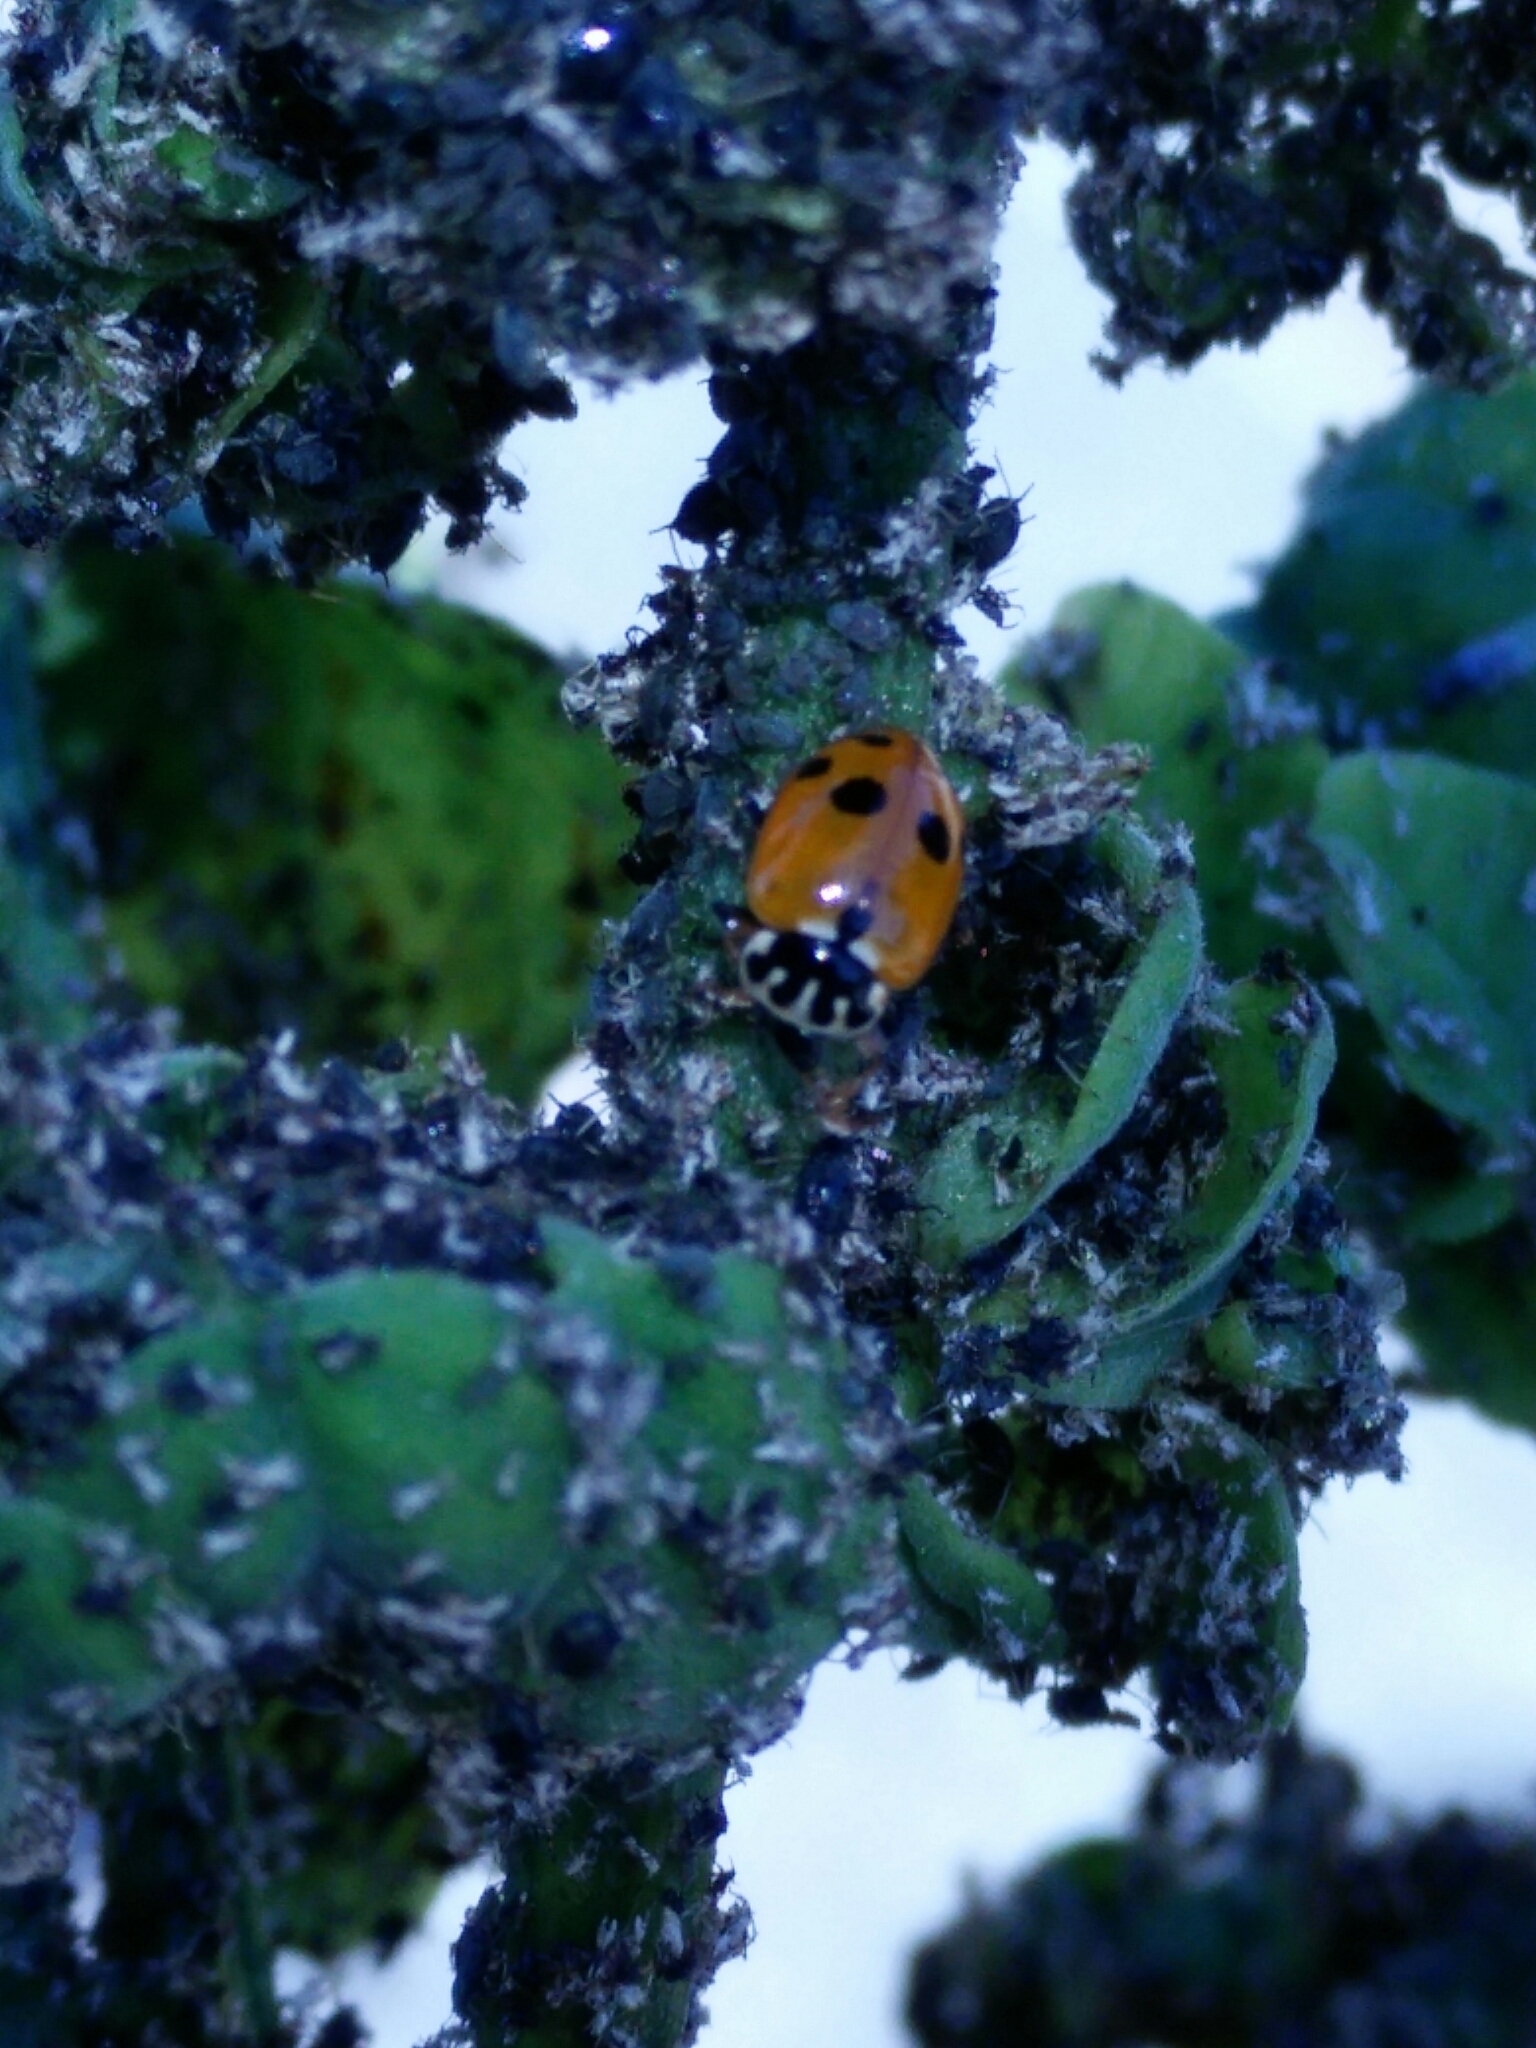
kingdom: Animalia
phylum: Arthropoda
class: Insecta
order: Coleoptera
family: Coccinellidae
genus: Hippodamia
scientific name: Hippodamia variegata
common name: Ladybird beetle
